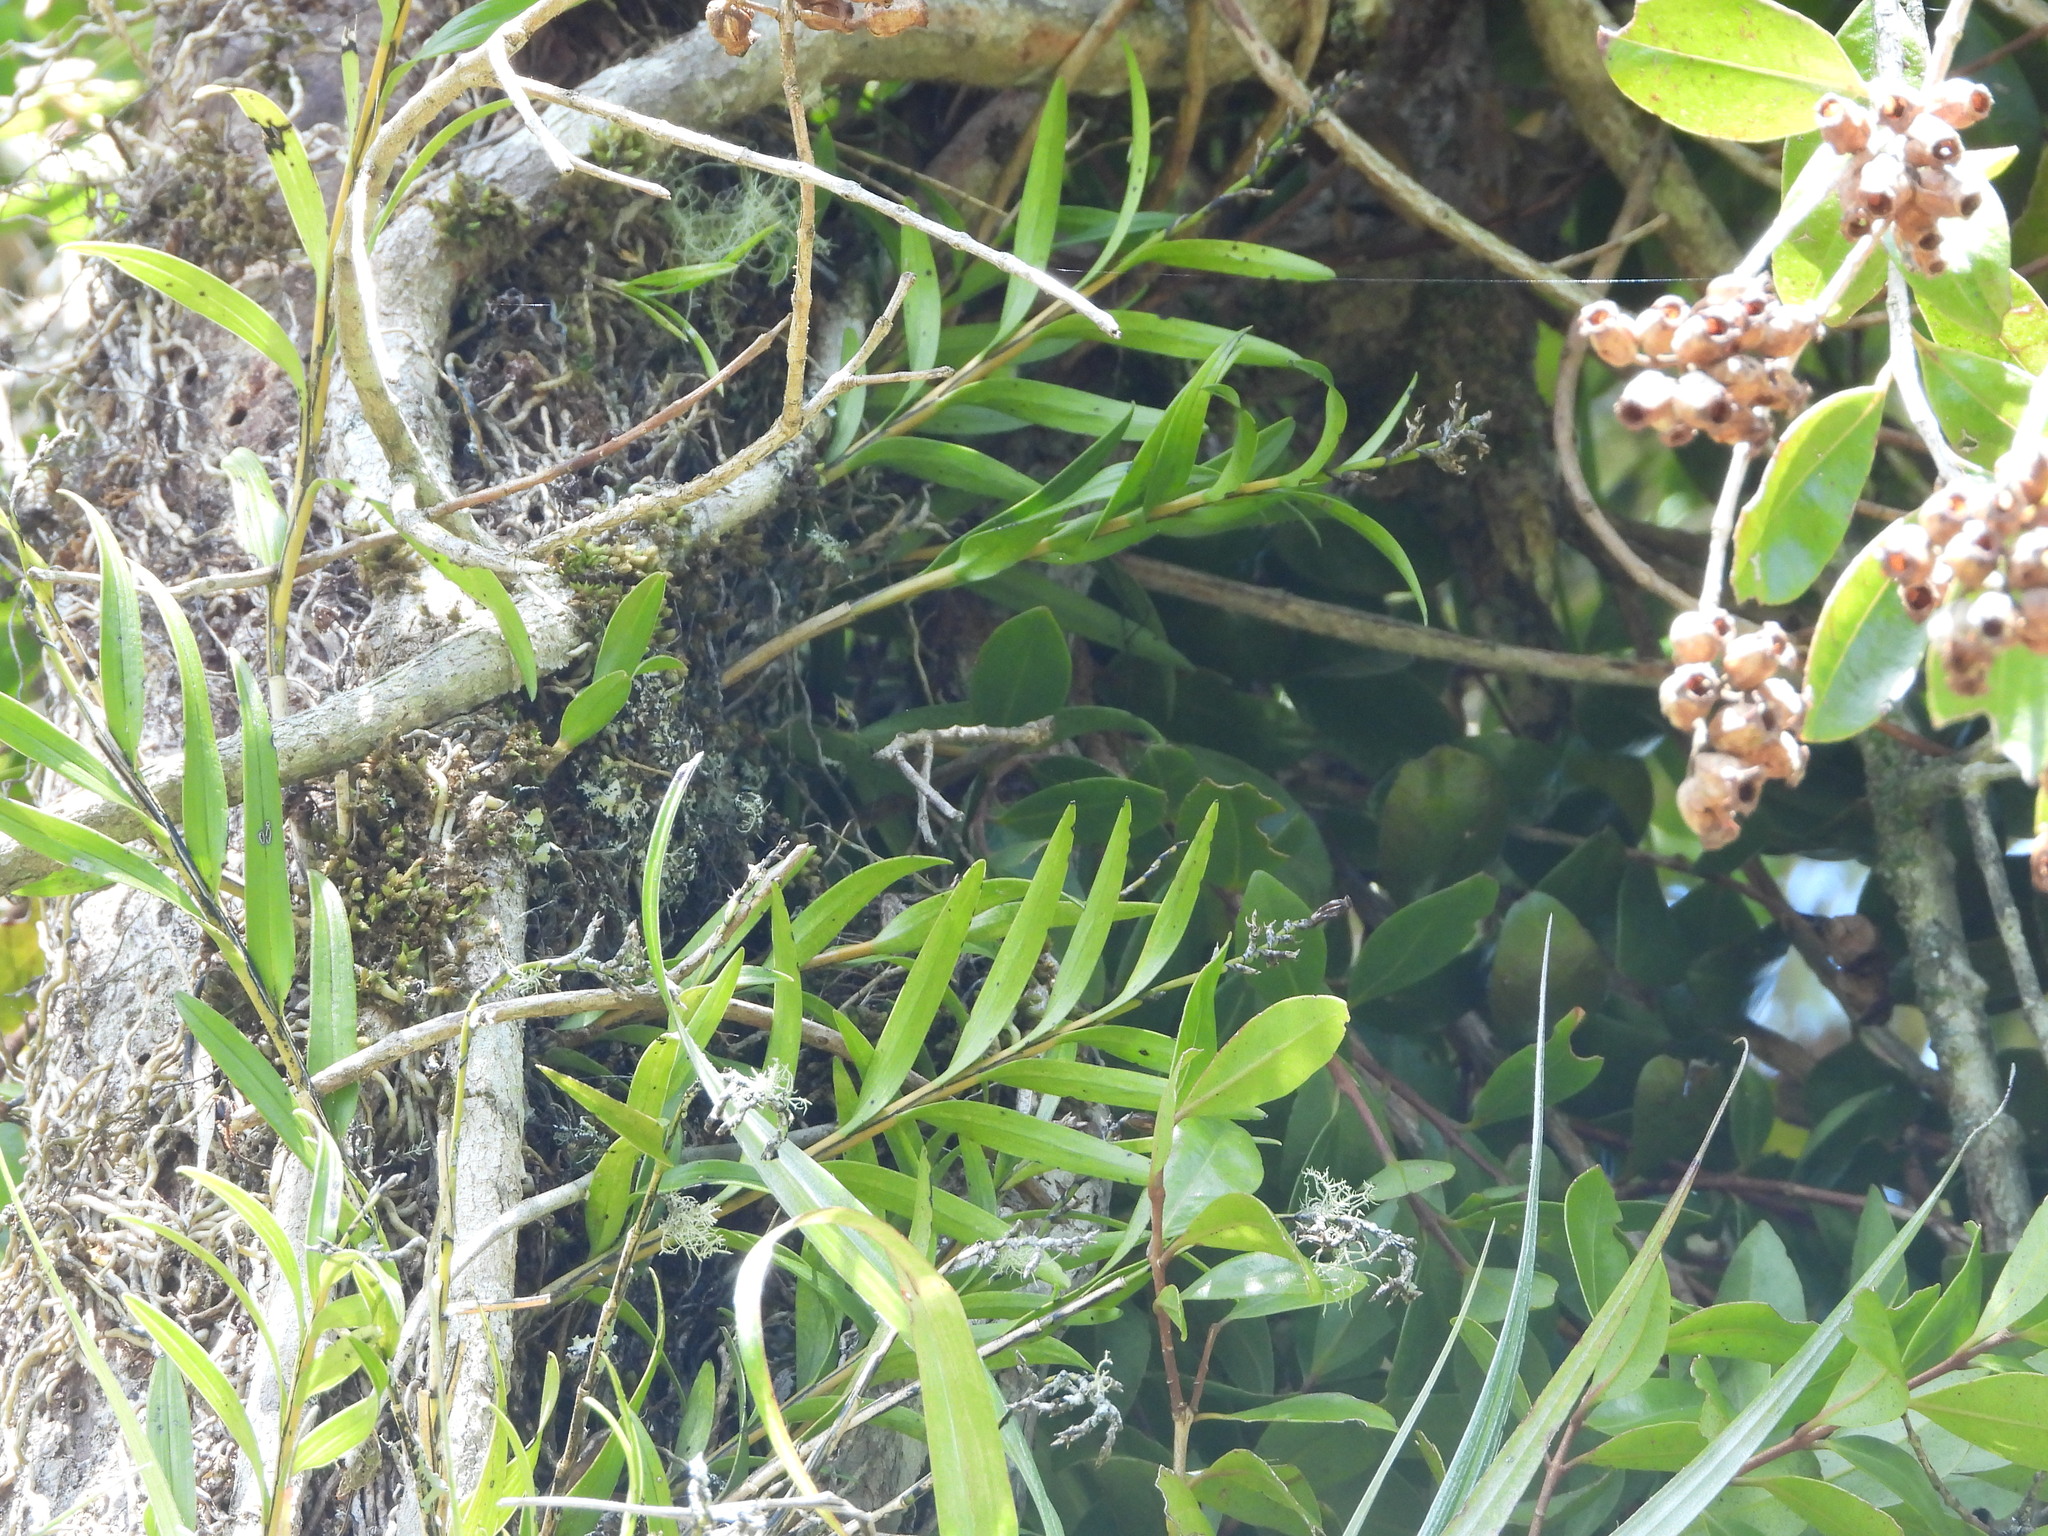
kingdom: Plantae
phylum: Tracheophyta
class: Liliopsida
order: Asparagales
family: Orchidaceae
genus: Earina
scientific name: Earina autumnalis
